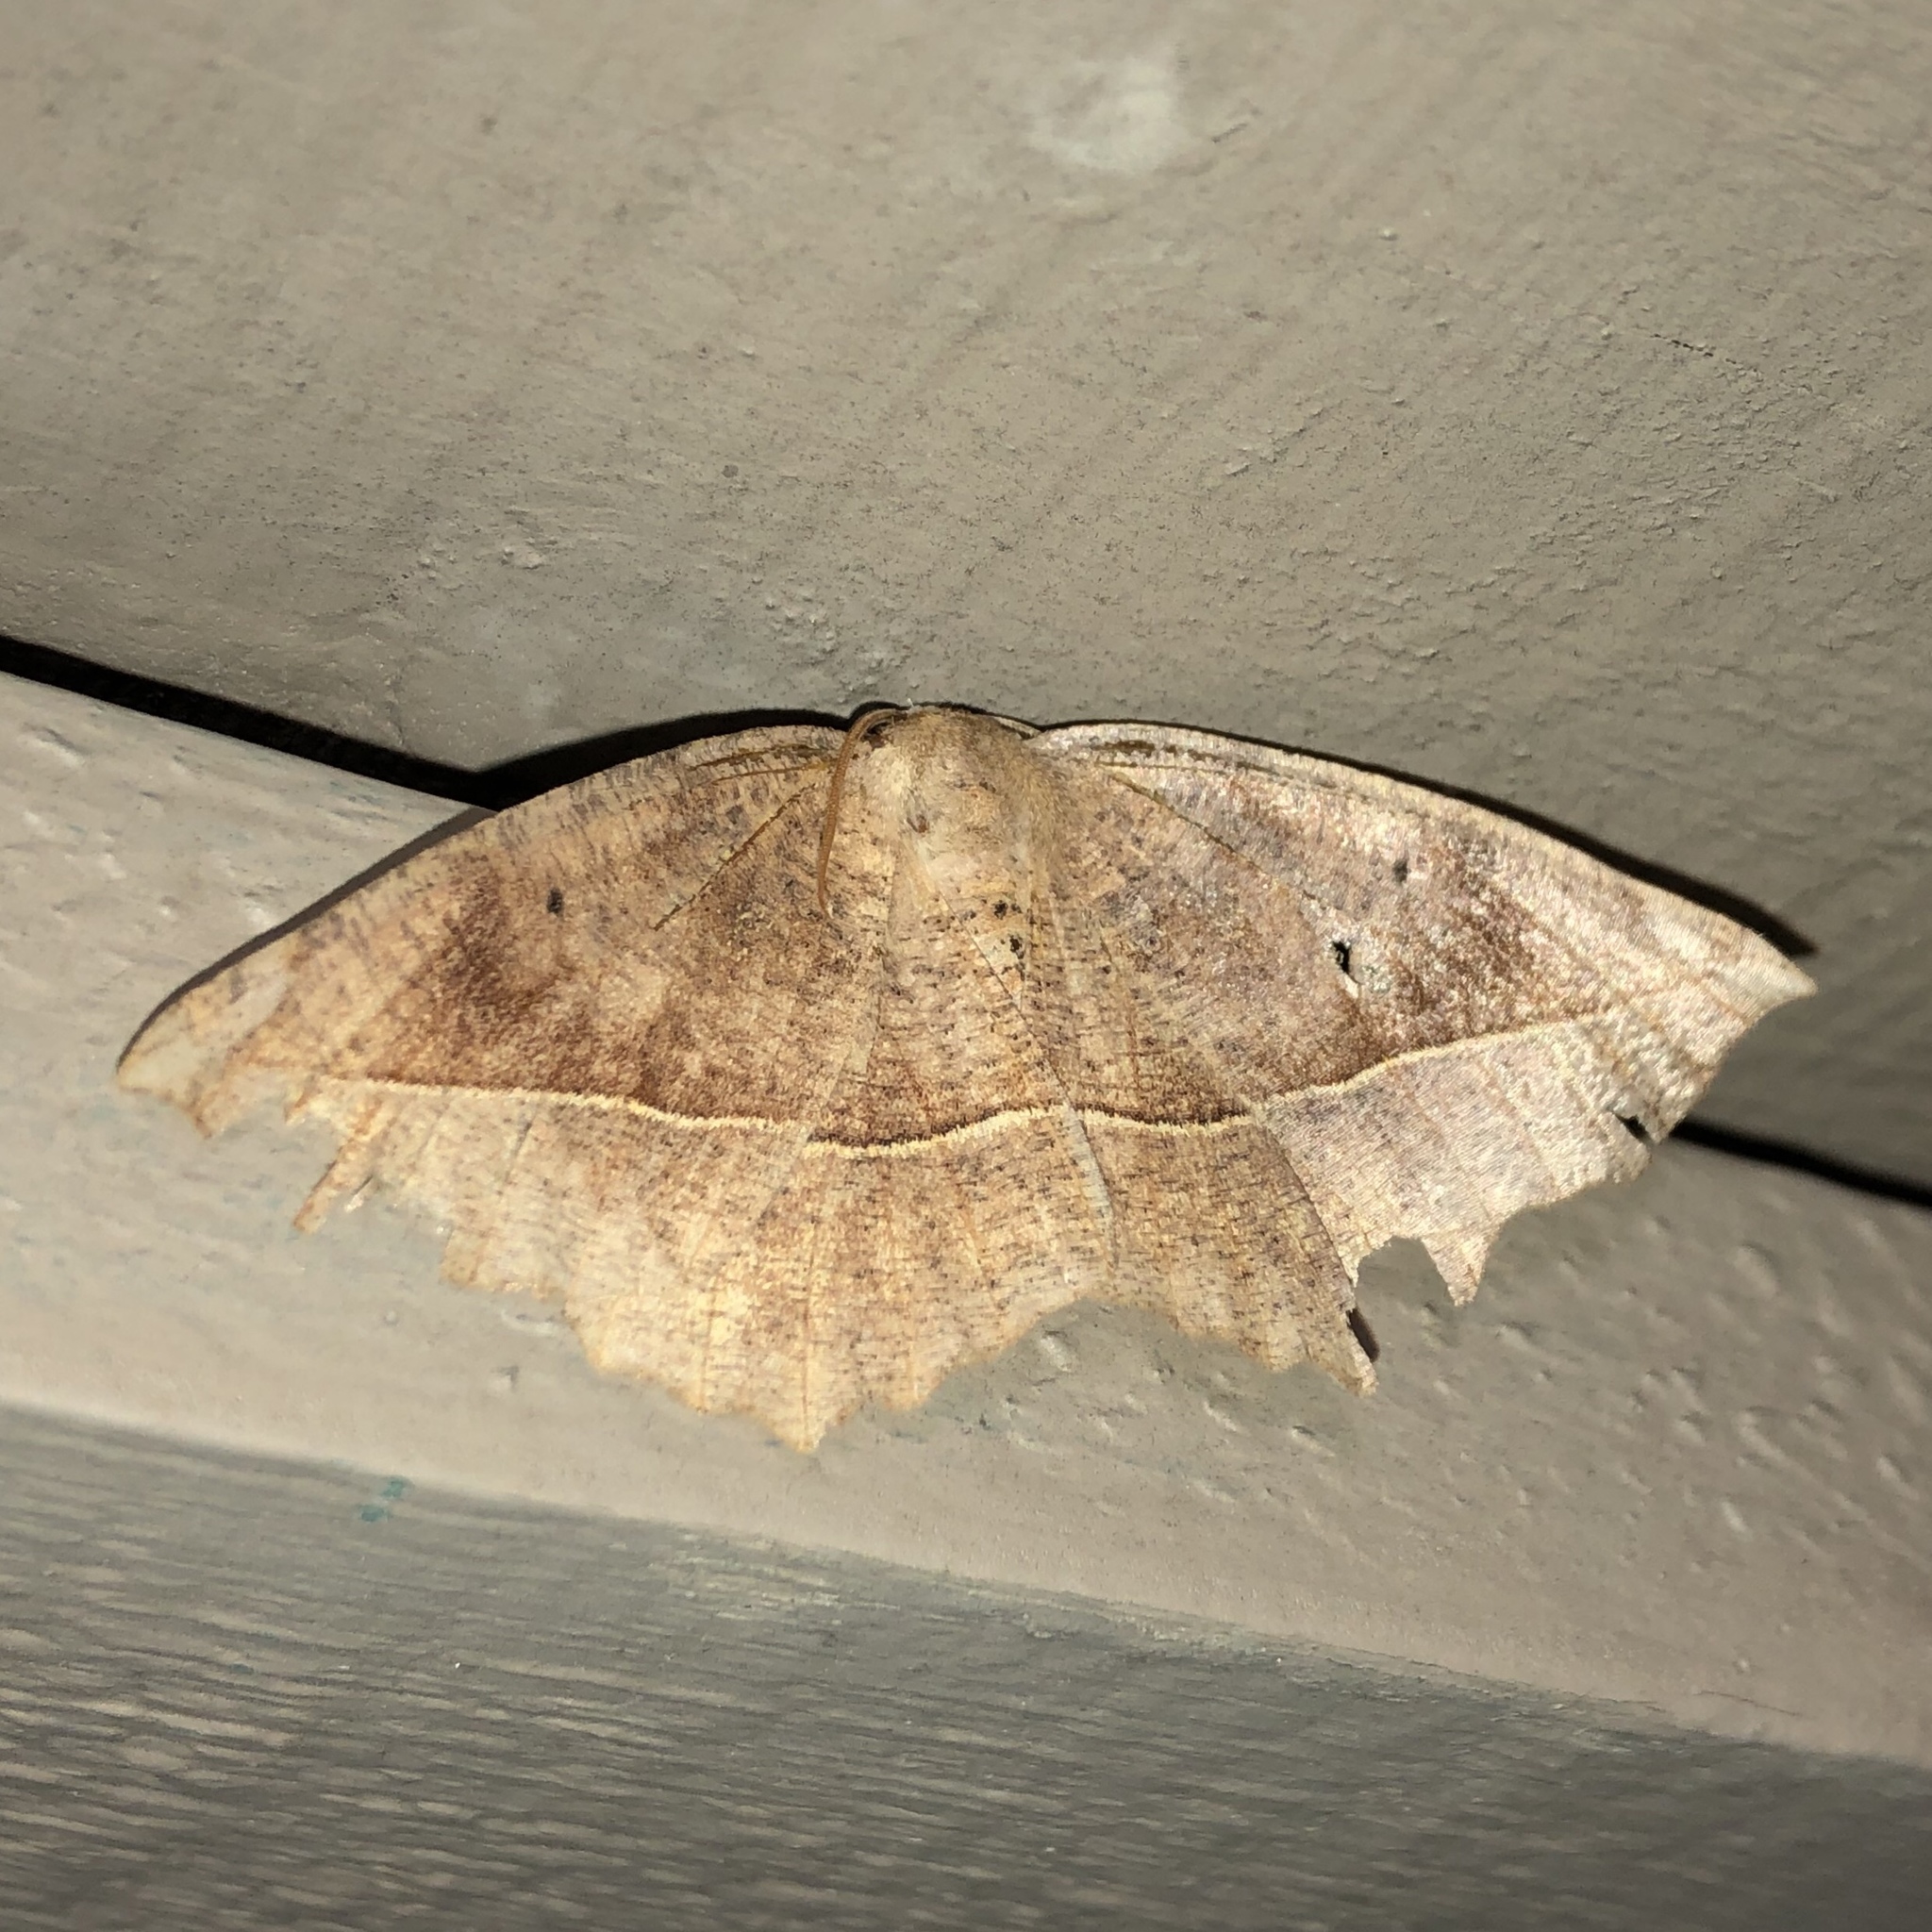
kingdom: Animalia
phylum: Arthropoda
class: Insecta
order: Lepidoptera
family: Geometridae
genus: Eutrapela
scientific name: Eutrapela clemataria
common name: Curved-toothed geometer
